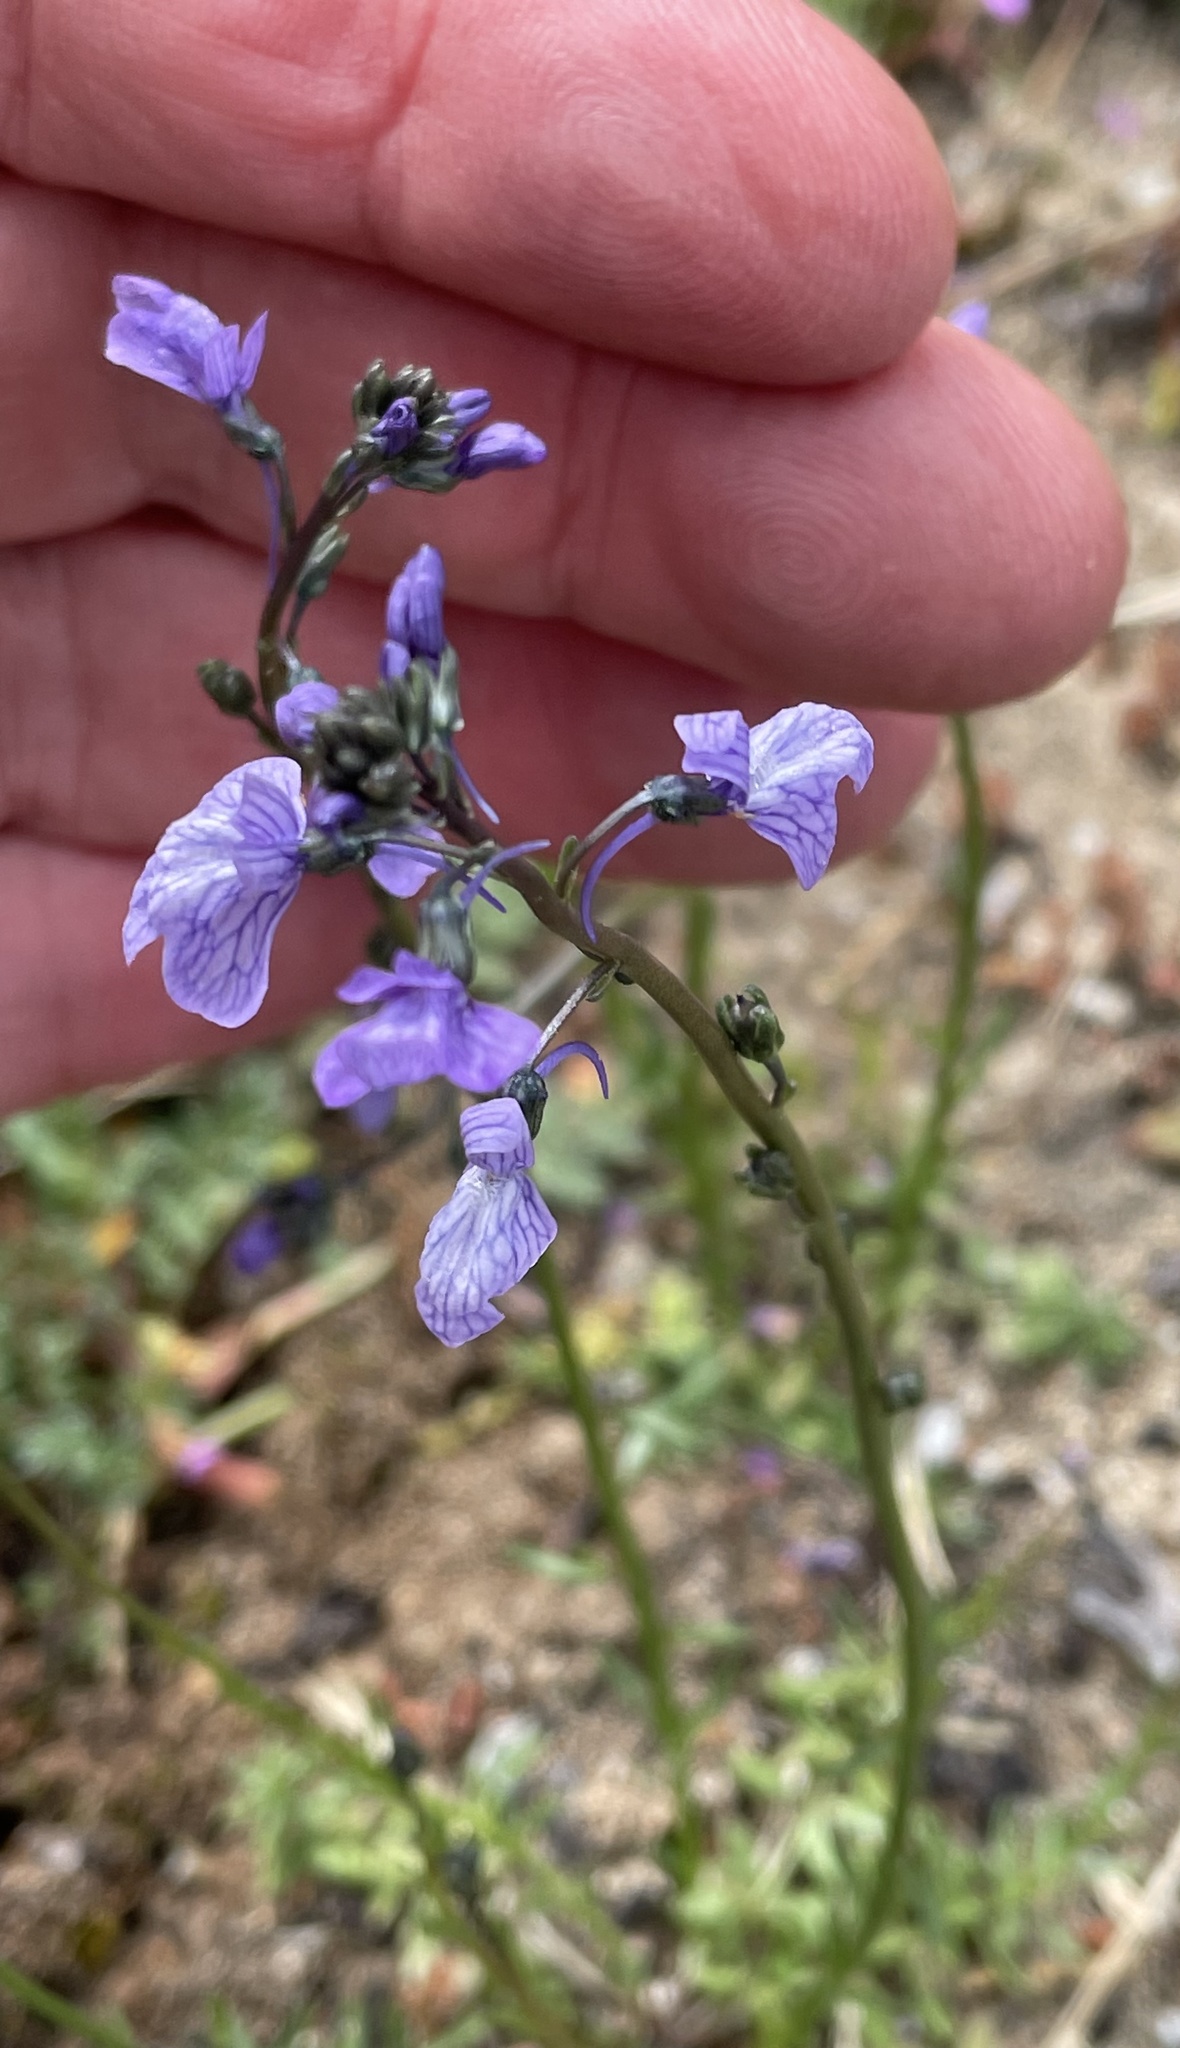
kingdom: Plantae
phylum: Tracheophyta
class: Magnoliopsida
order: Lamiales
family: Plantaginaceae
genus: Nuttallanthus
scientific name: Nuttallanthus texanus
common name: Texas toadflax
